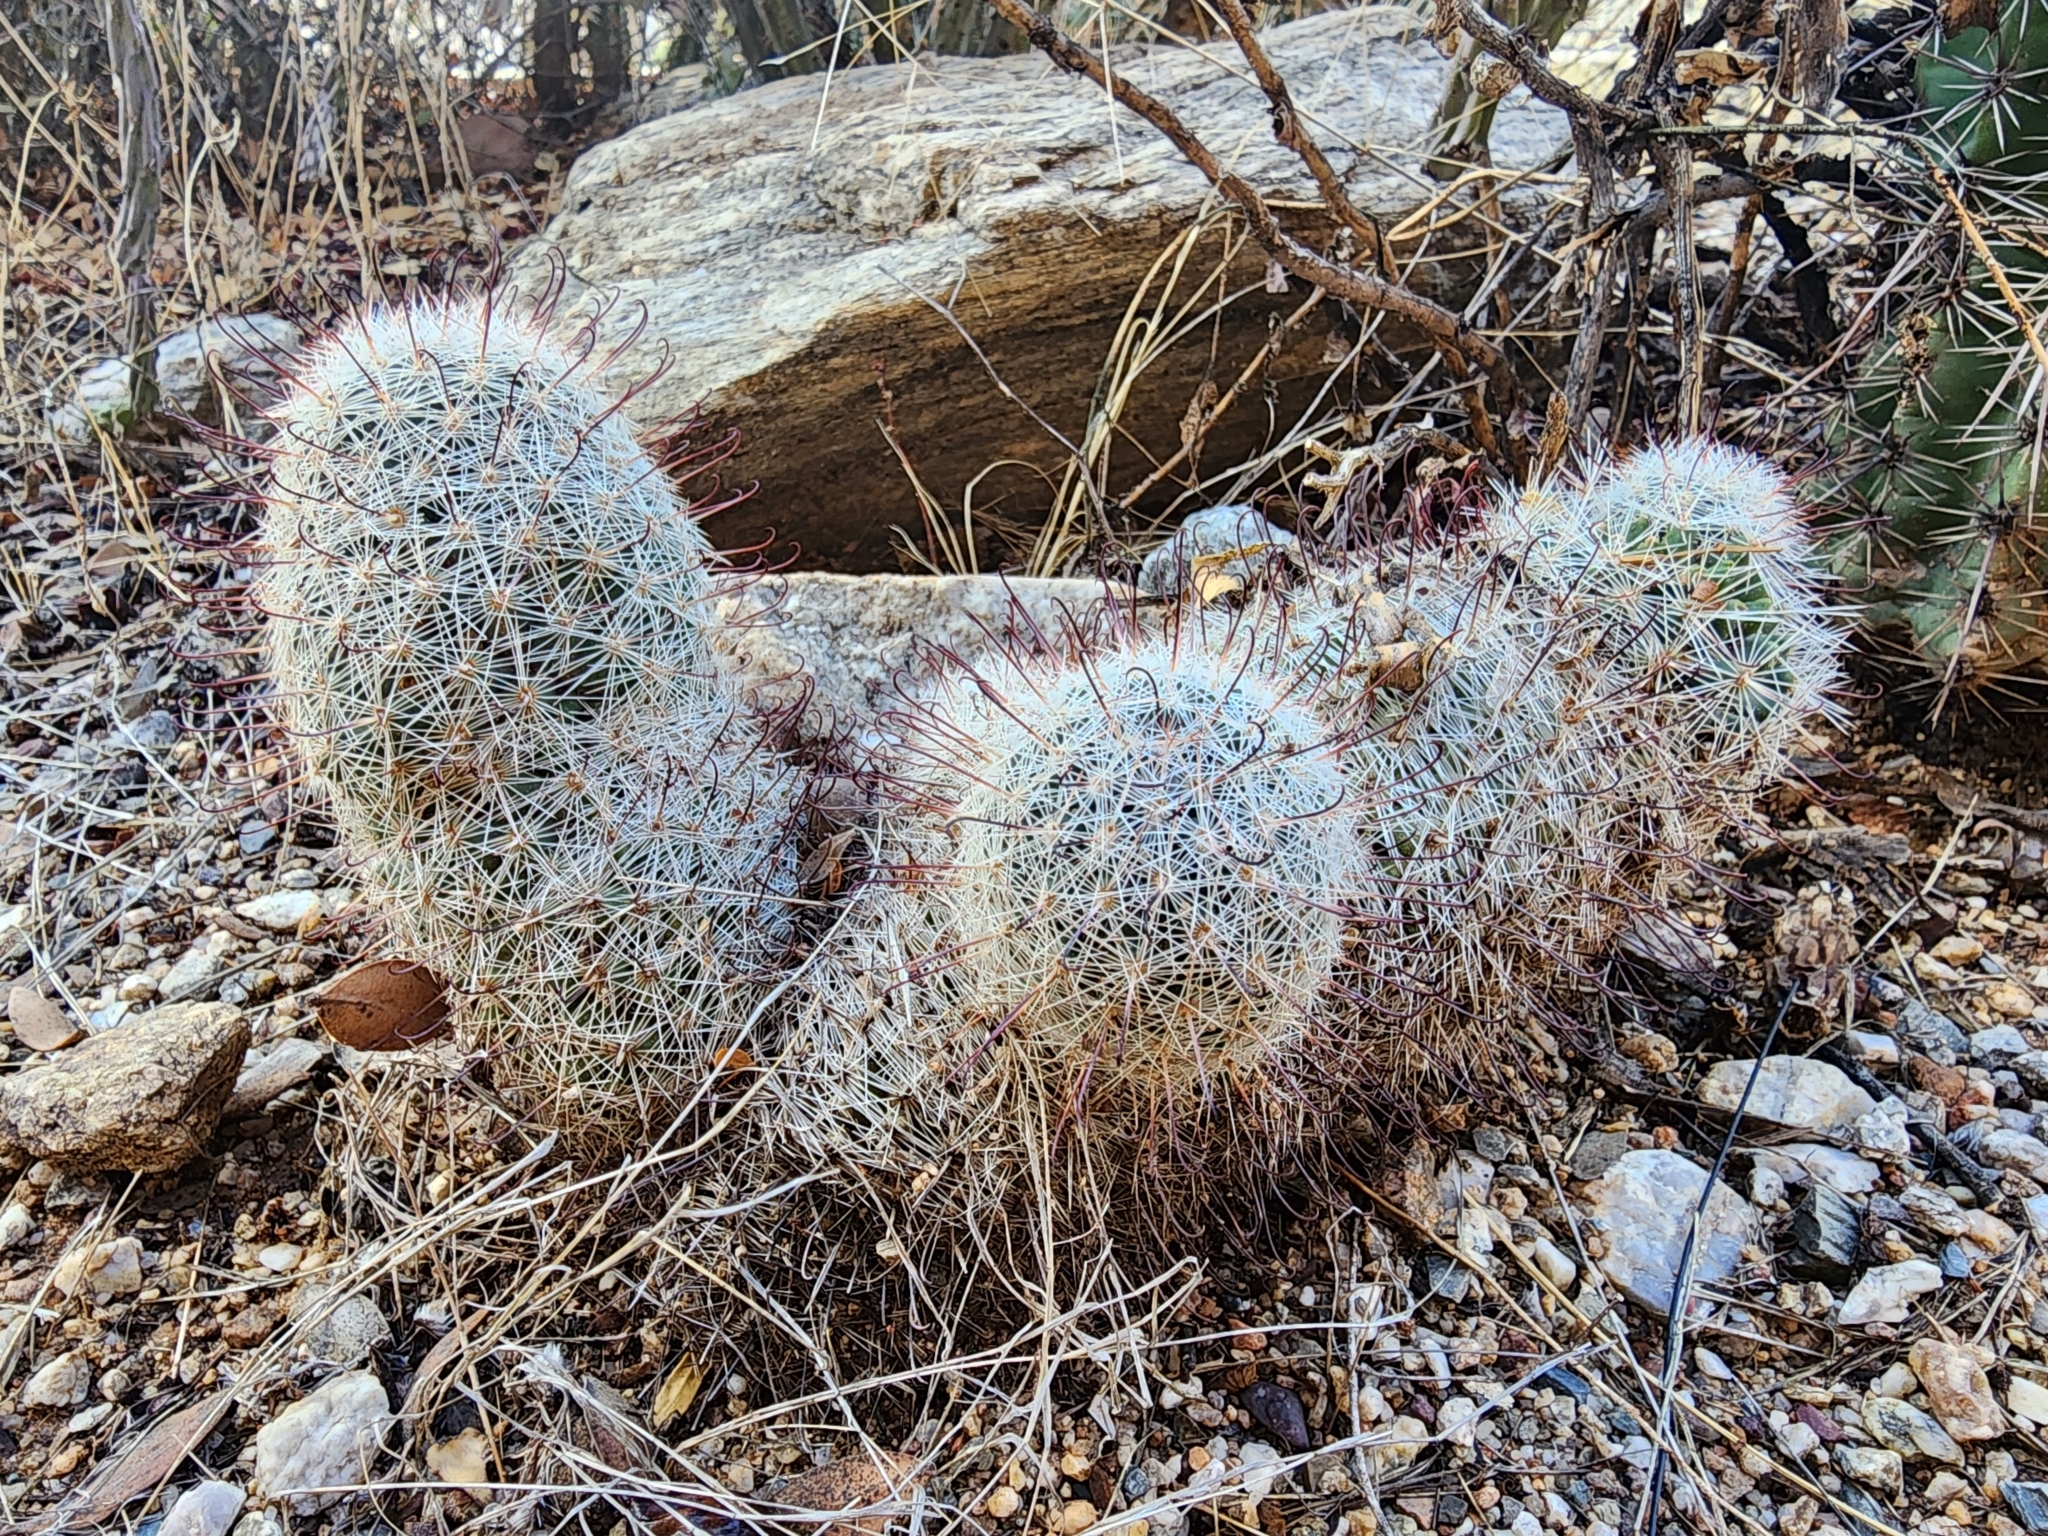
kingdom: Plantae
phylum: Tracheophyta
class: Magnoliopsida
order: Caryophyllales
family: Cactaceae
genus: Cochemiea
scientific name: Cochemiea grahamii
